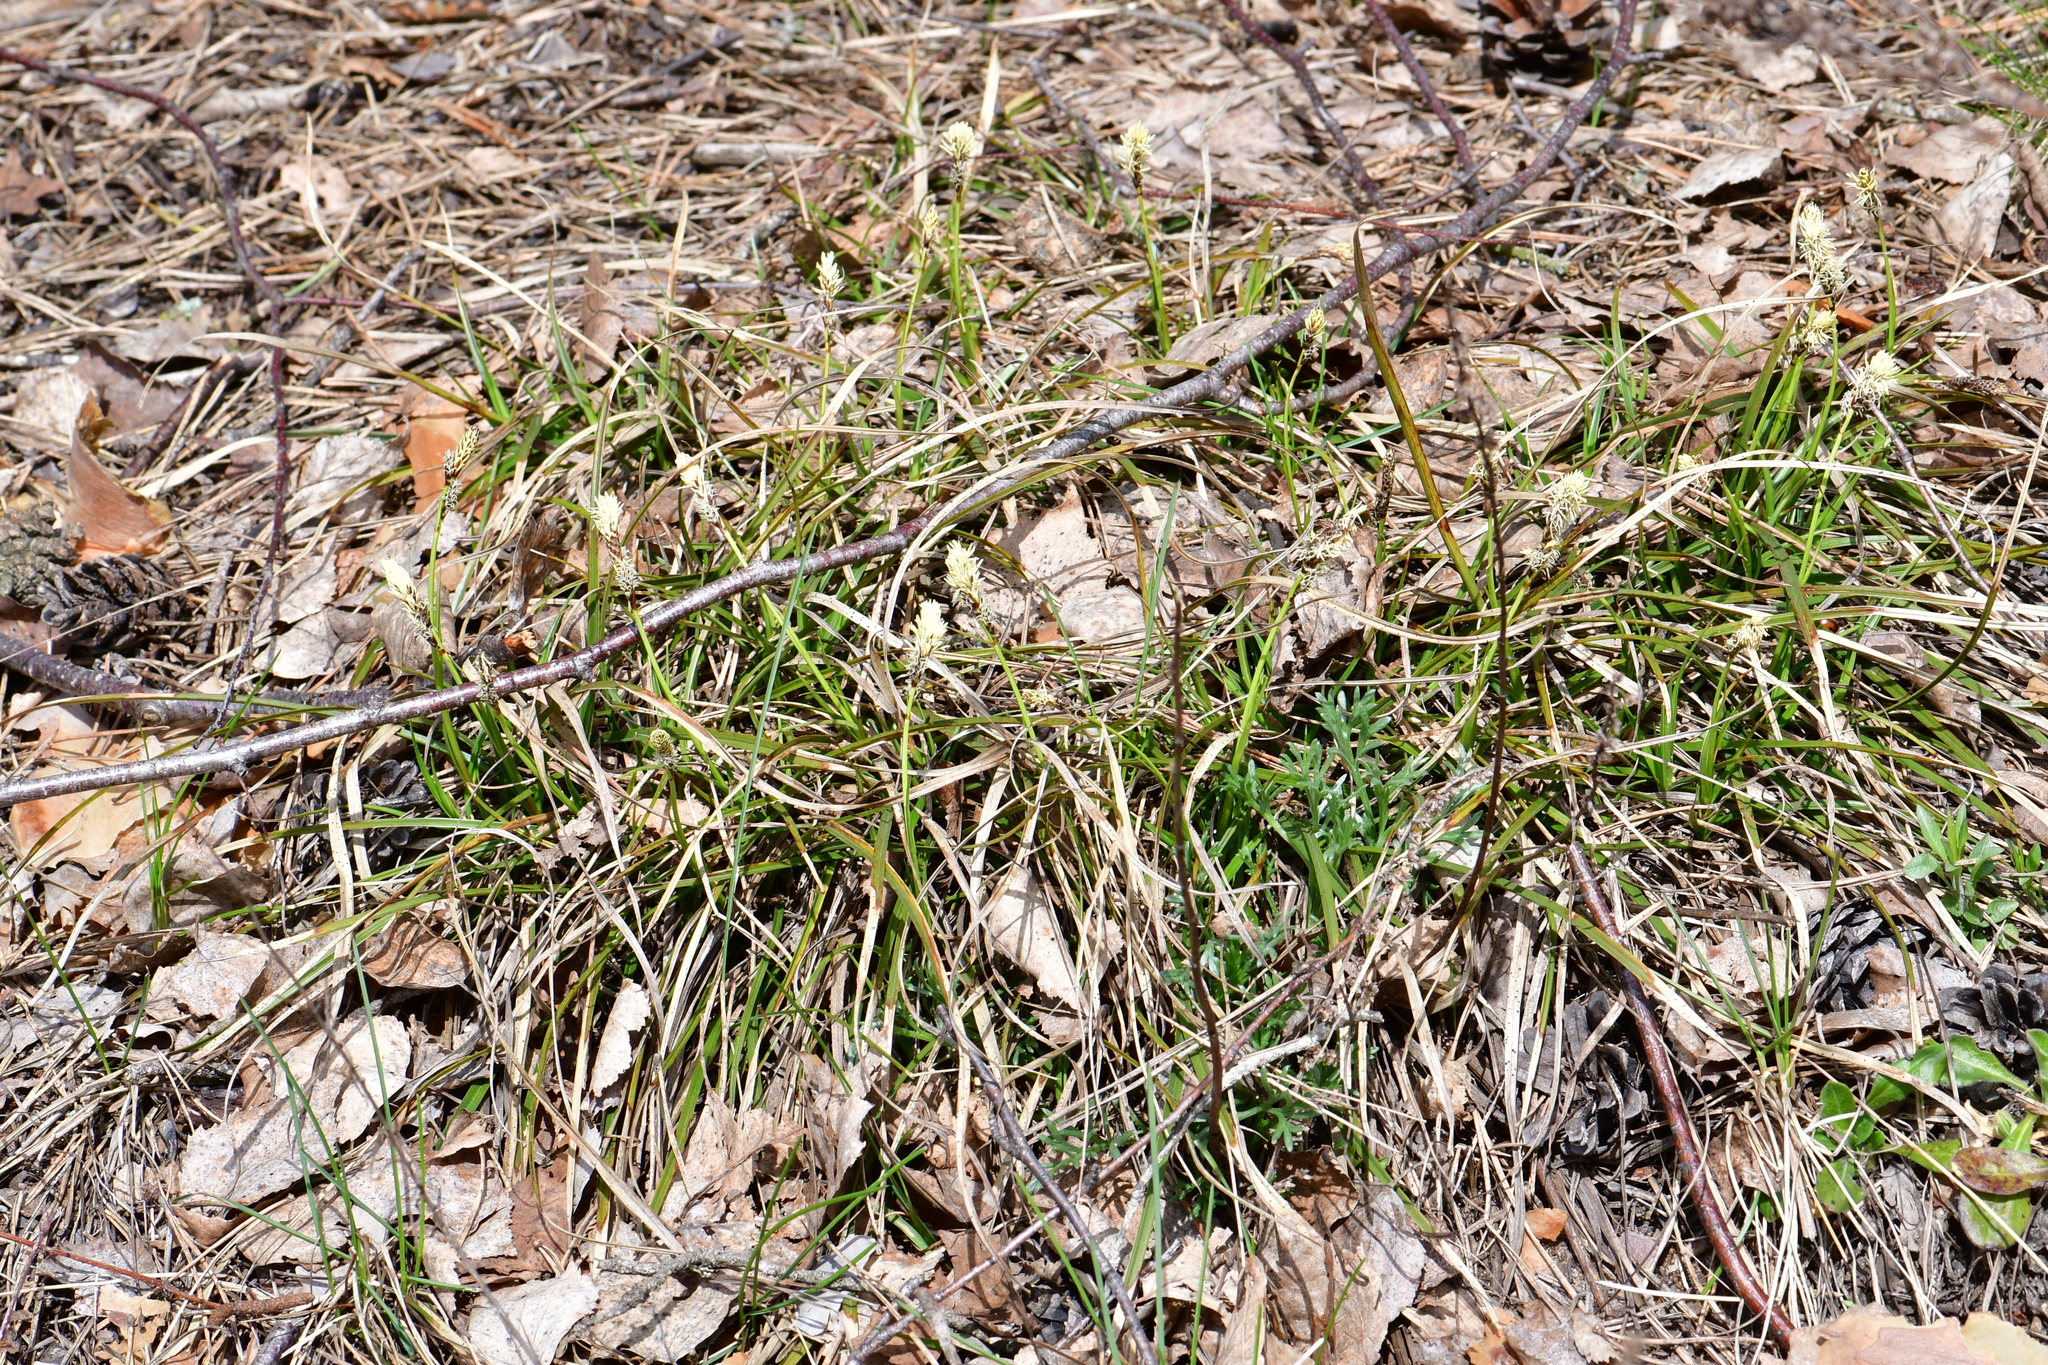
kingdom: Plantae
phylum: Tracheophyta
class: Liliopsida
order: Poales
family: Cyperaceae
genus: Carex
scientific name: Carex ericetorum
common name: Rare spring-sedge
